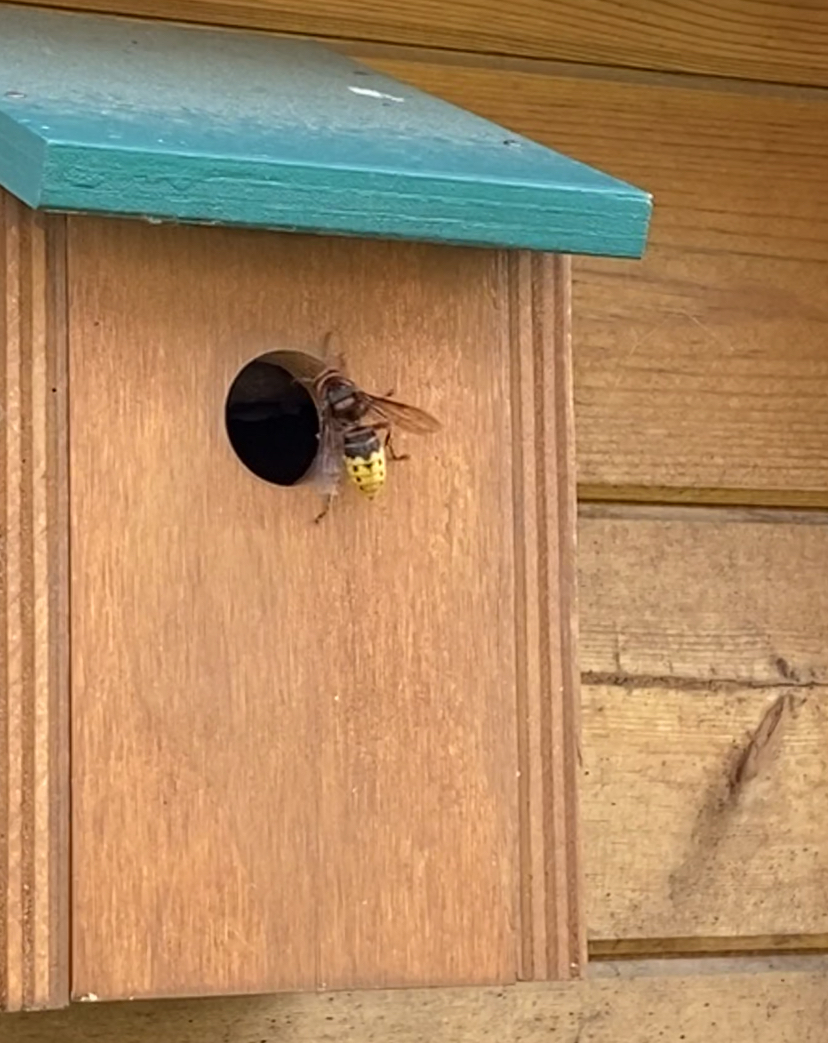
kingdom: Animalia
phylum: Arthropoda
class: Insecta
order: Hymenoptera
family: Vespidae
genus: Vespa
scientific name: Vespa crabro
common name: Hornet
